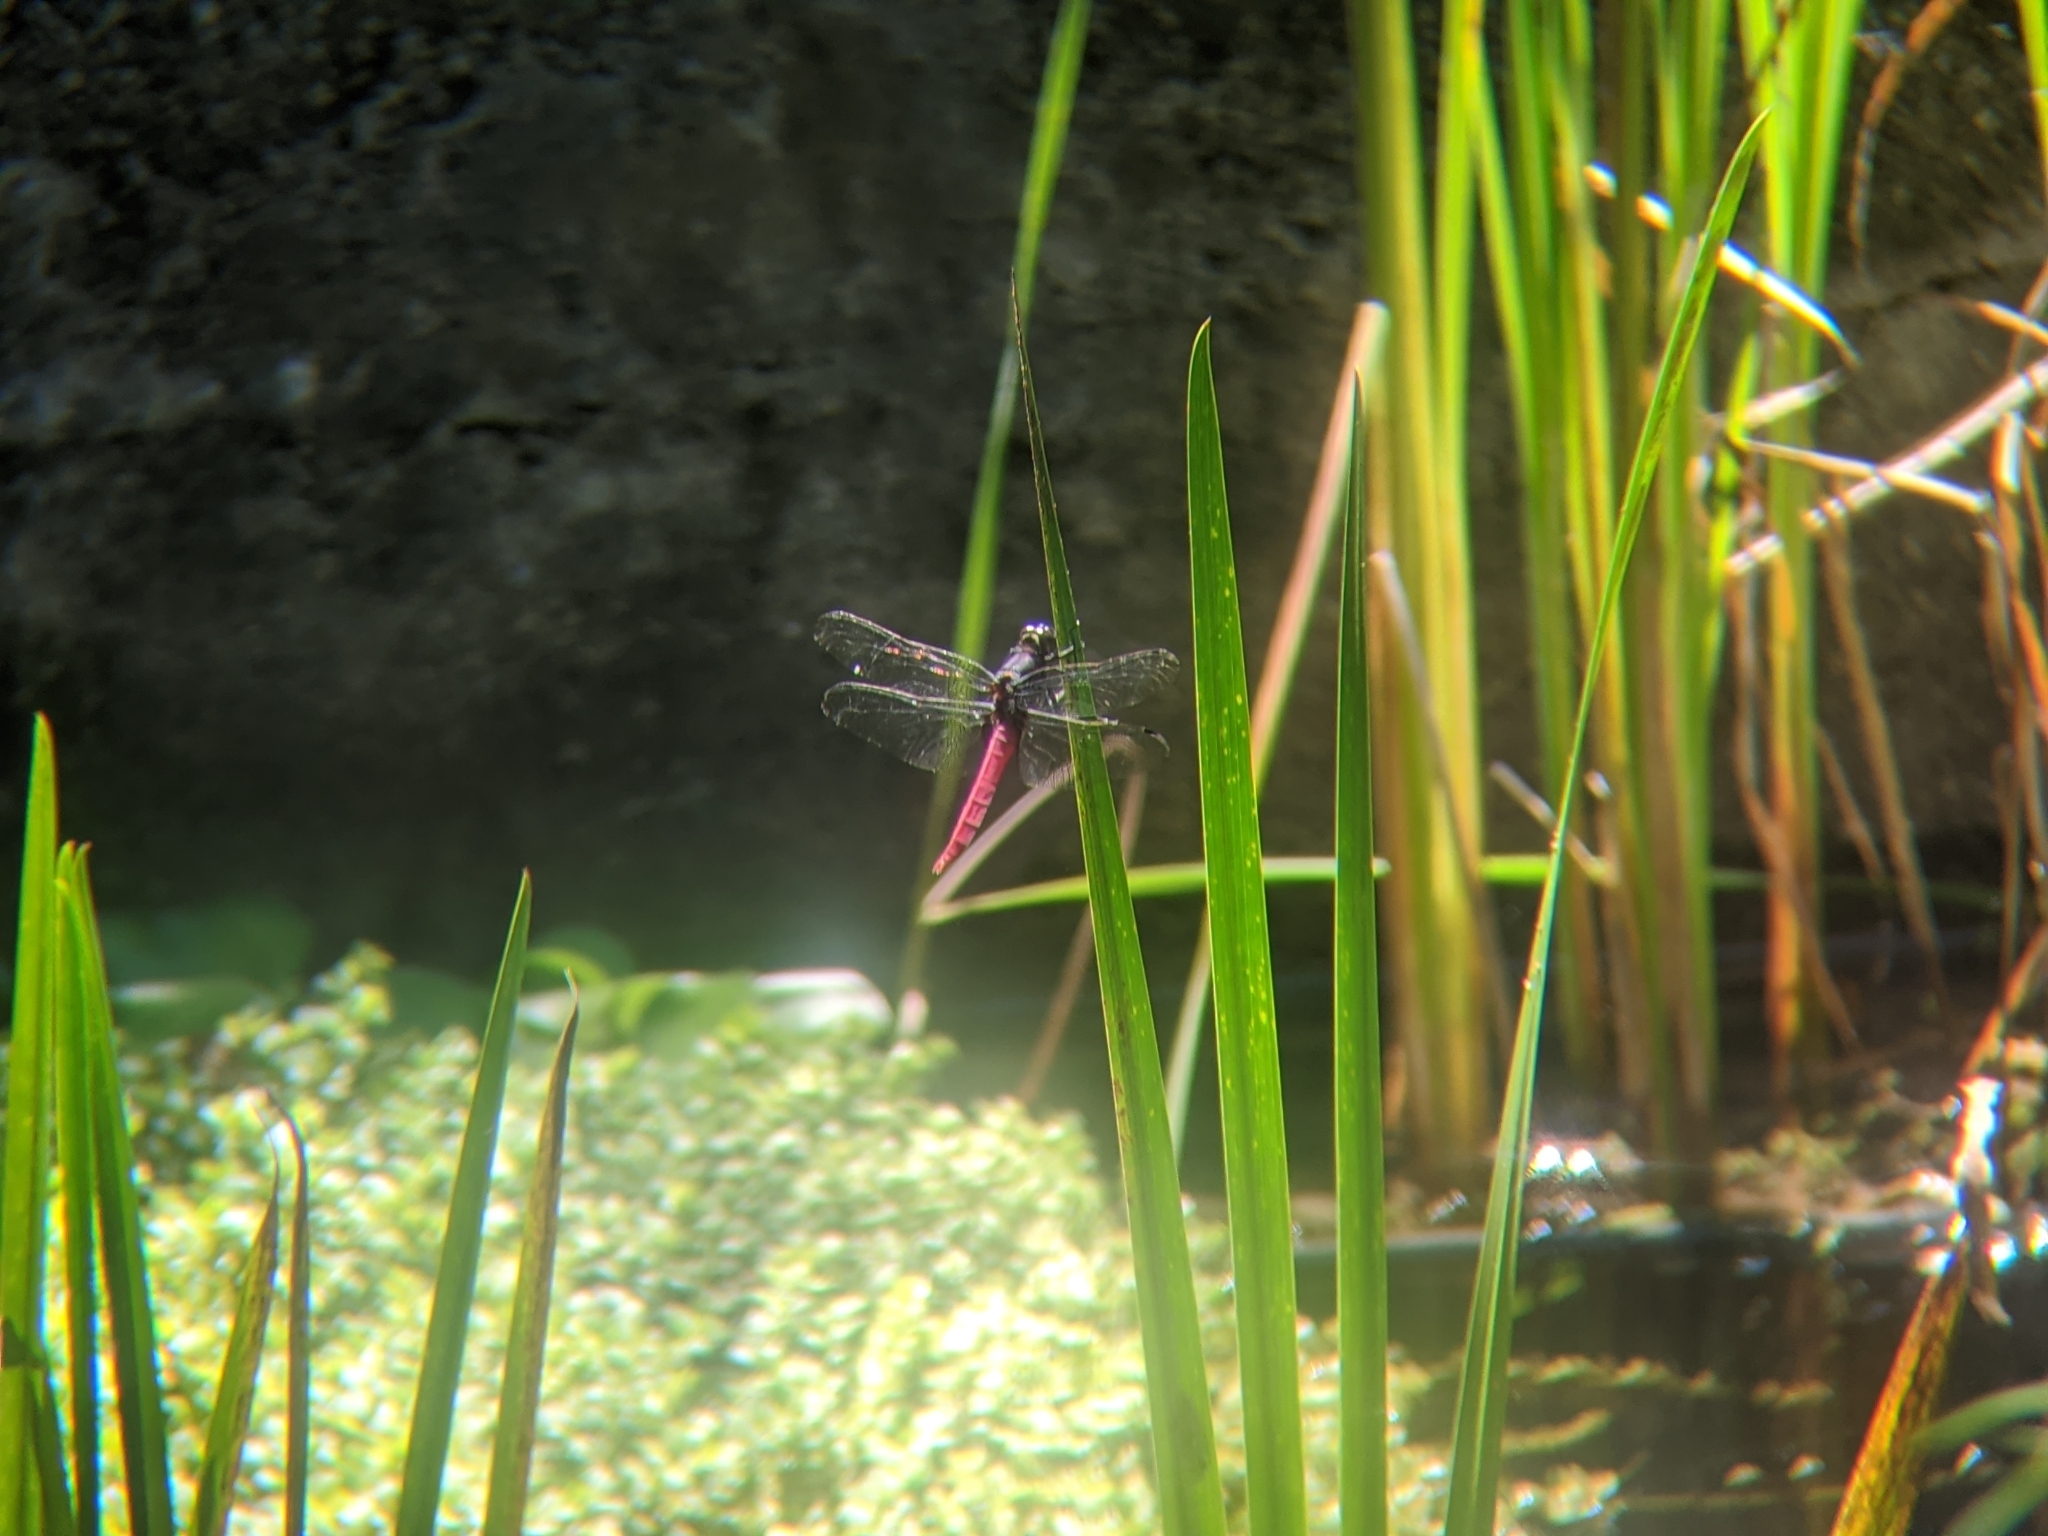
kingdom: Animalia
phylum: Arthropoda
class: Insecta
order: Odonata
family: Libellulidae
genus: Orthetrum
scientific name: Orthetrum pruinosum
